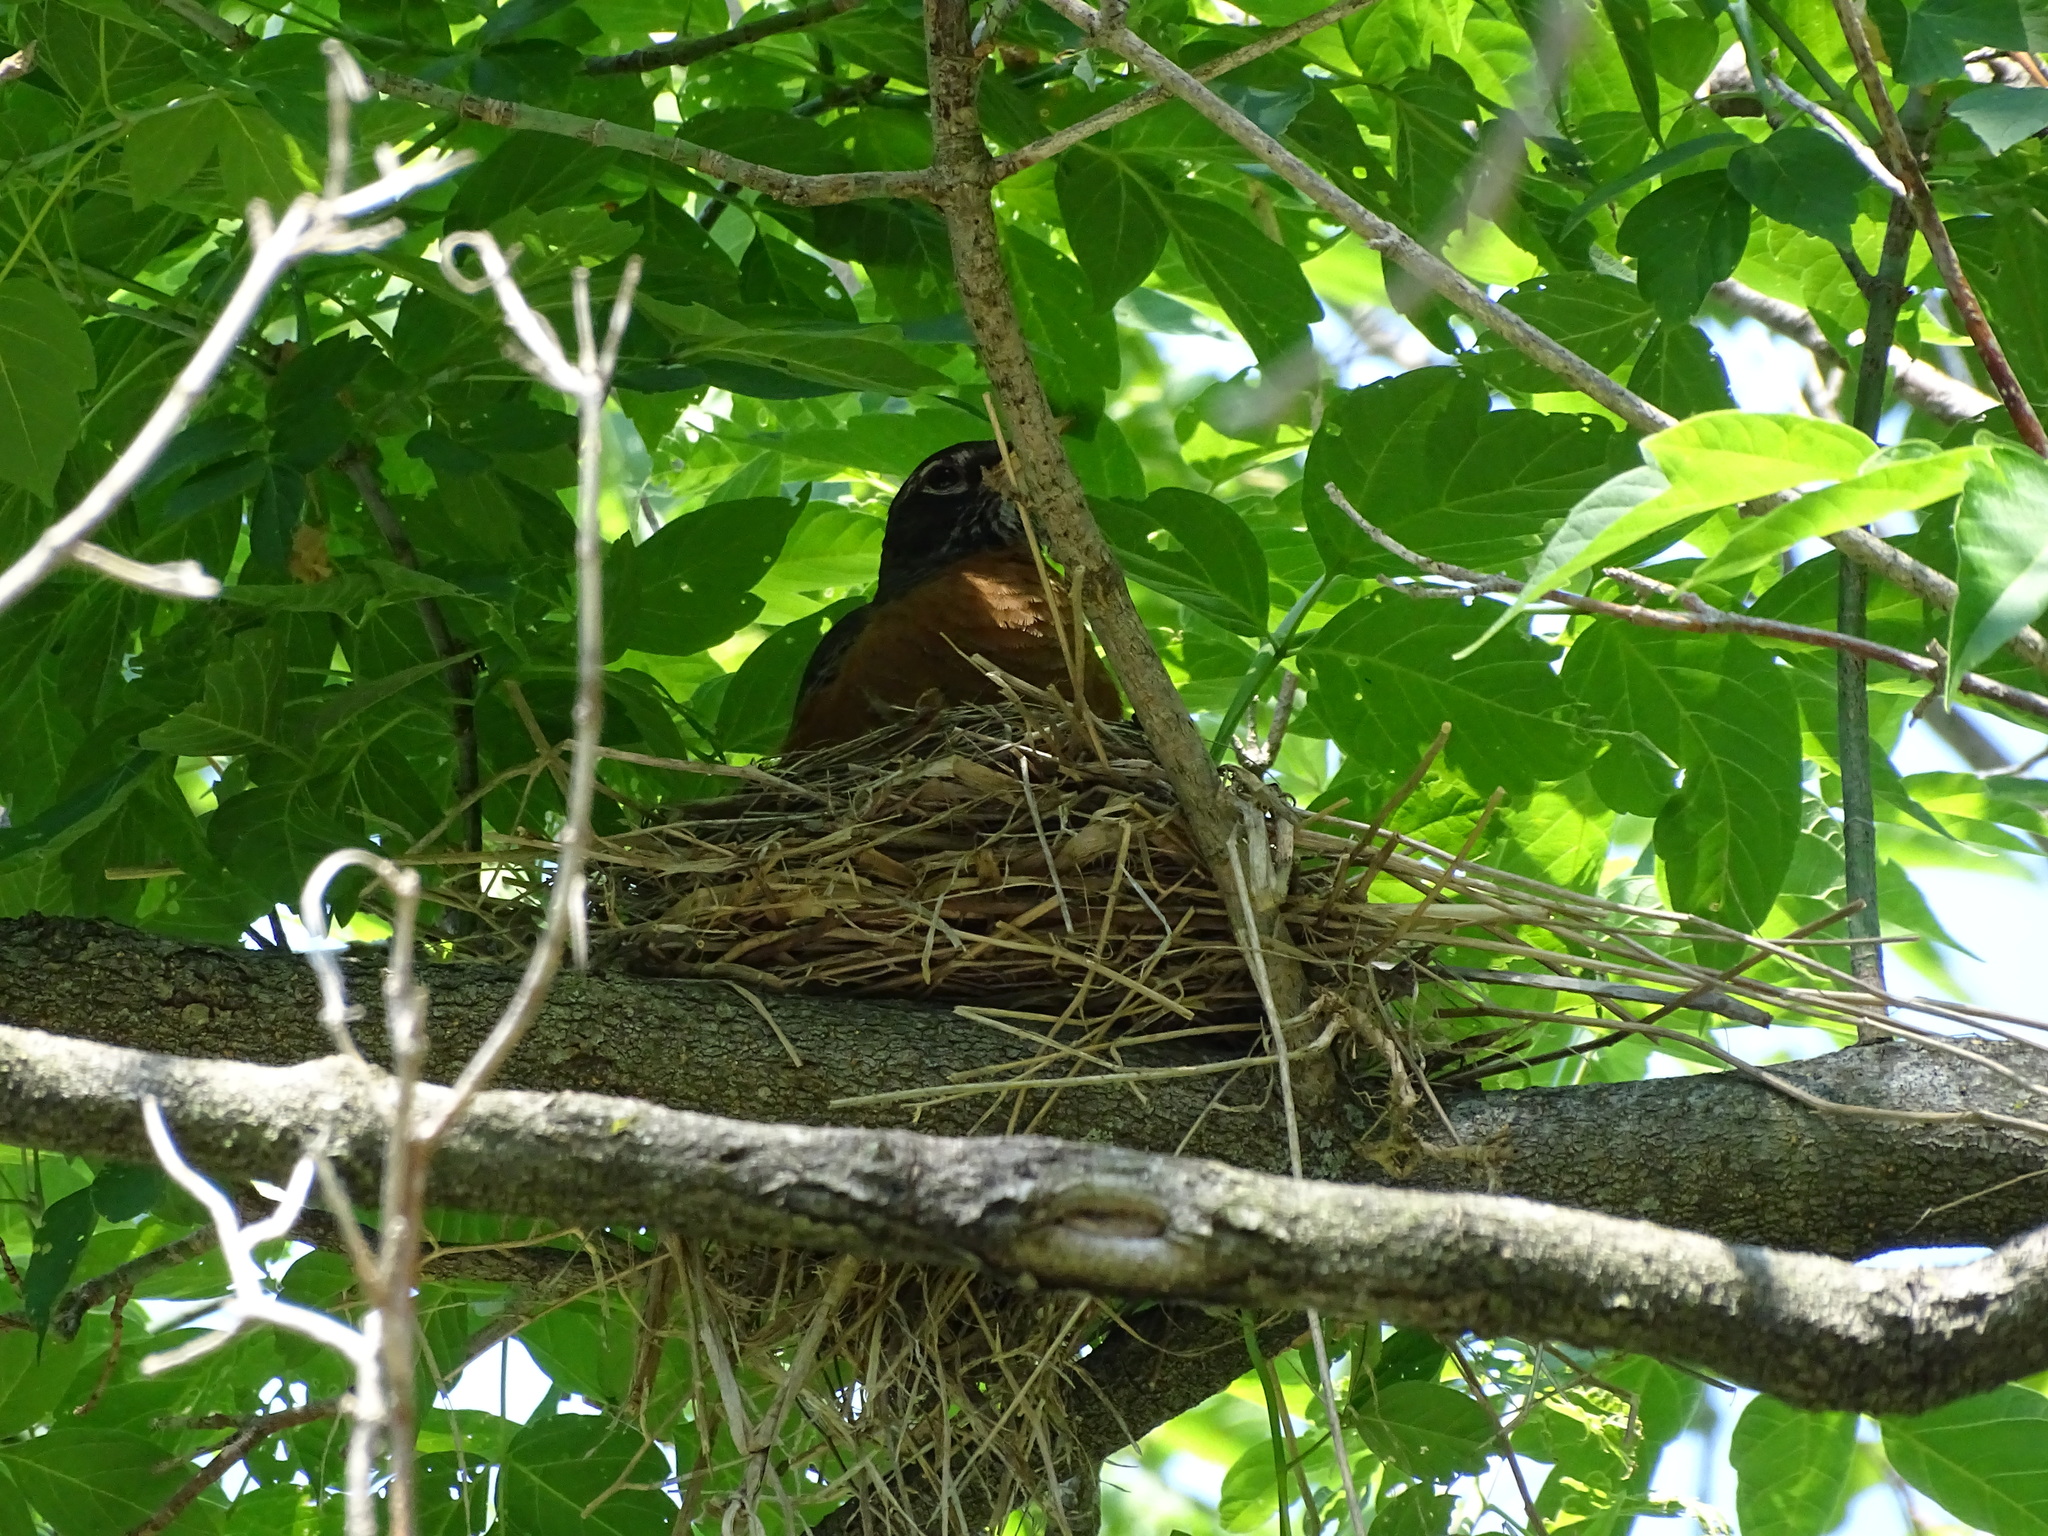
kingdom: Animalia
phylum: Chordata
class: Aves
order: Passeriformes
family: Turdidae
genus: Turdus
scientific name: Turdus migratorius
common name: American robin
